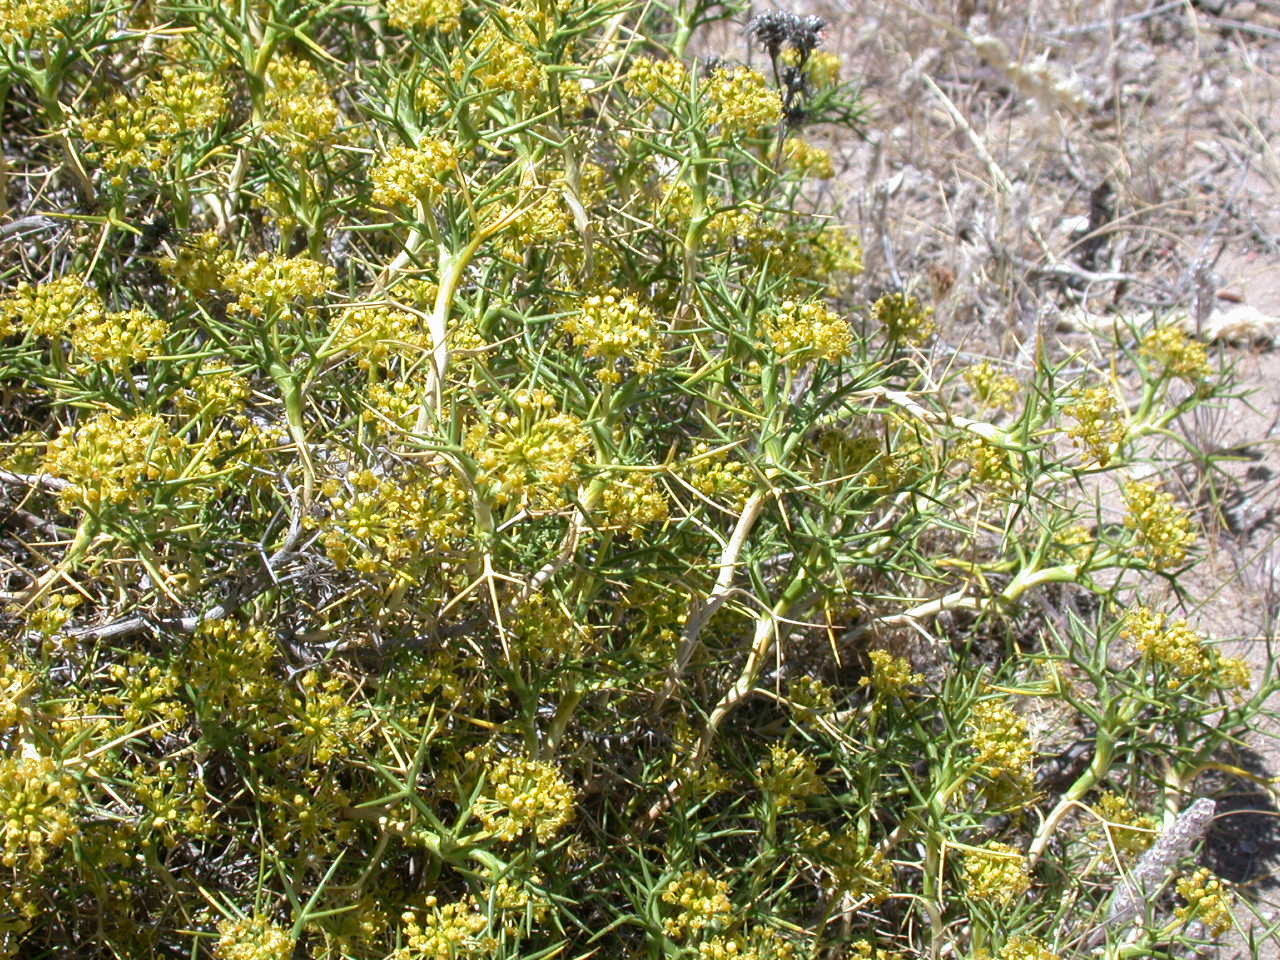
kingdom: Plantae
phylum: Tracheophyta
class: Magnoliopsida
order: Apiales
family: Apiaceae
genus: Azorella
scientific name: Azorella prolifera
